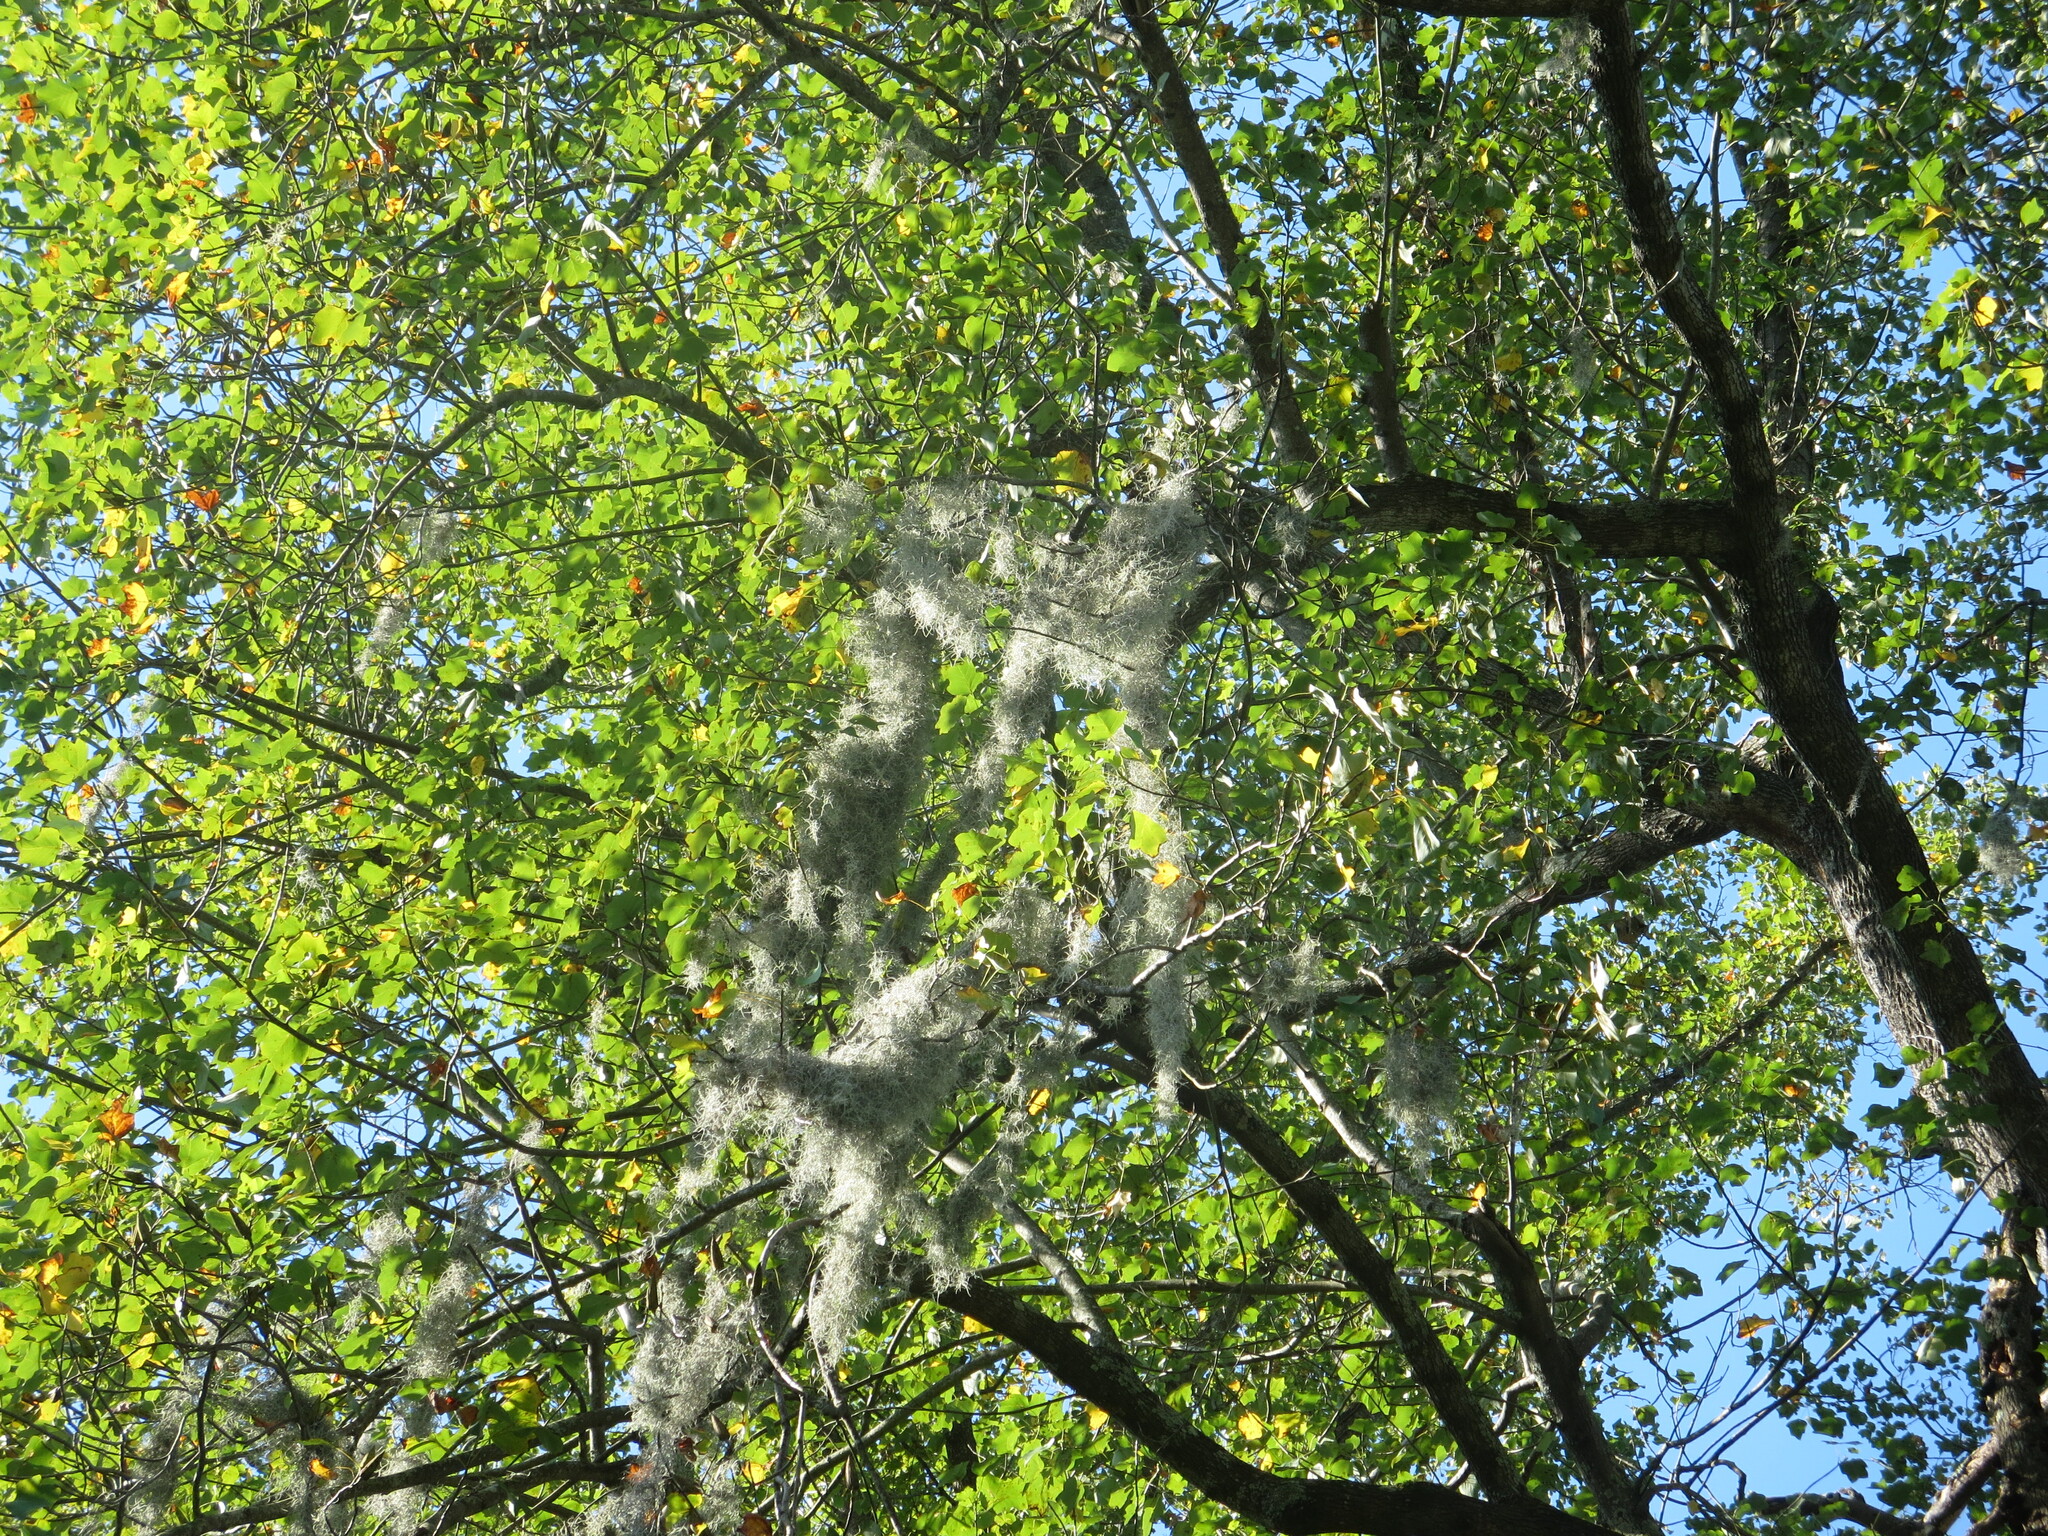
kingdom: Plantae
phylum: Tracheophyta
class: Liliopsida
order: Poales
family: Bromeliaceae
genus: Tillandsia
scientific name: Tillandsia usneoides
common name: Spanish moss
